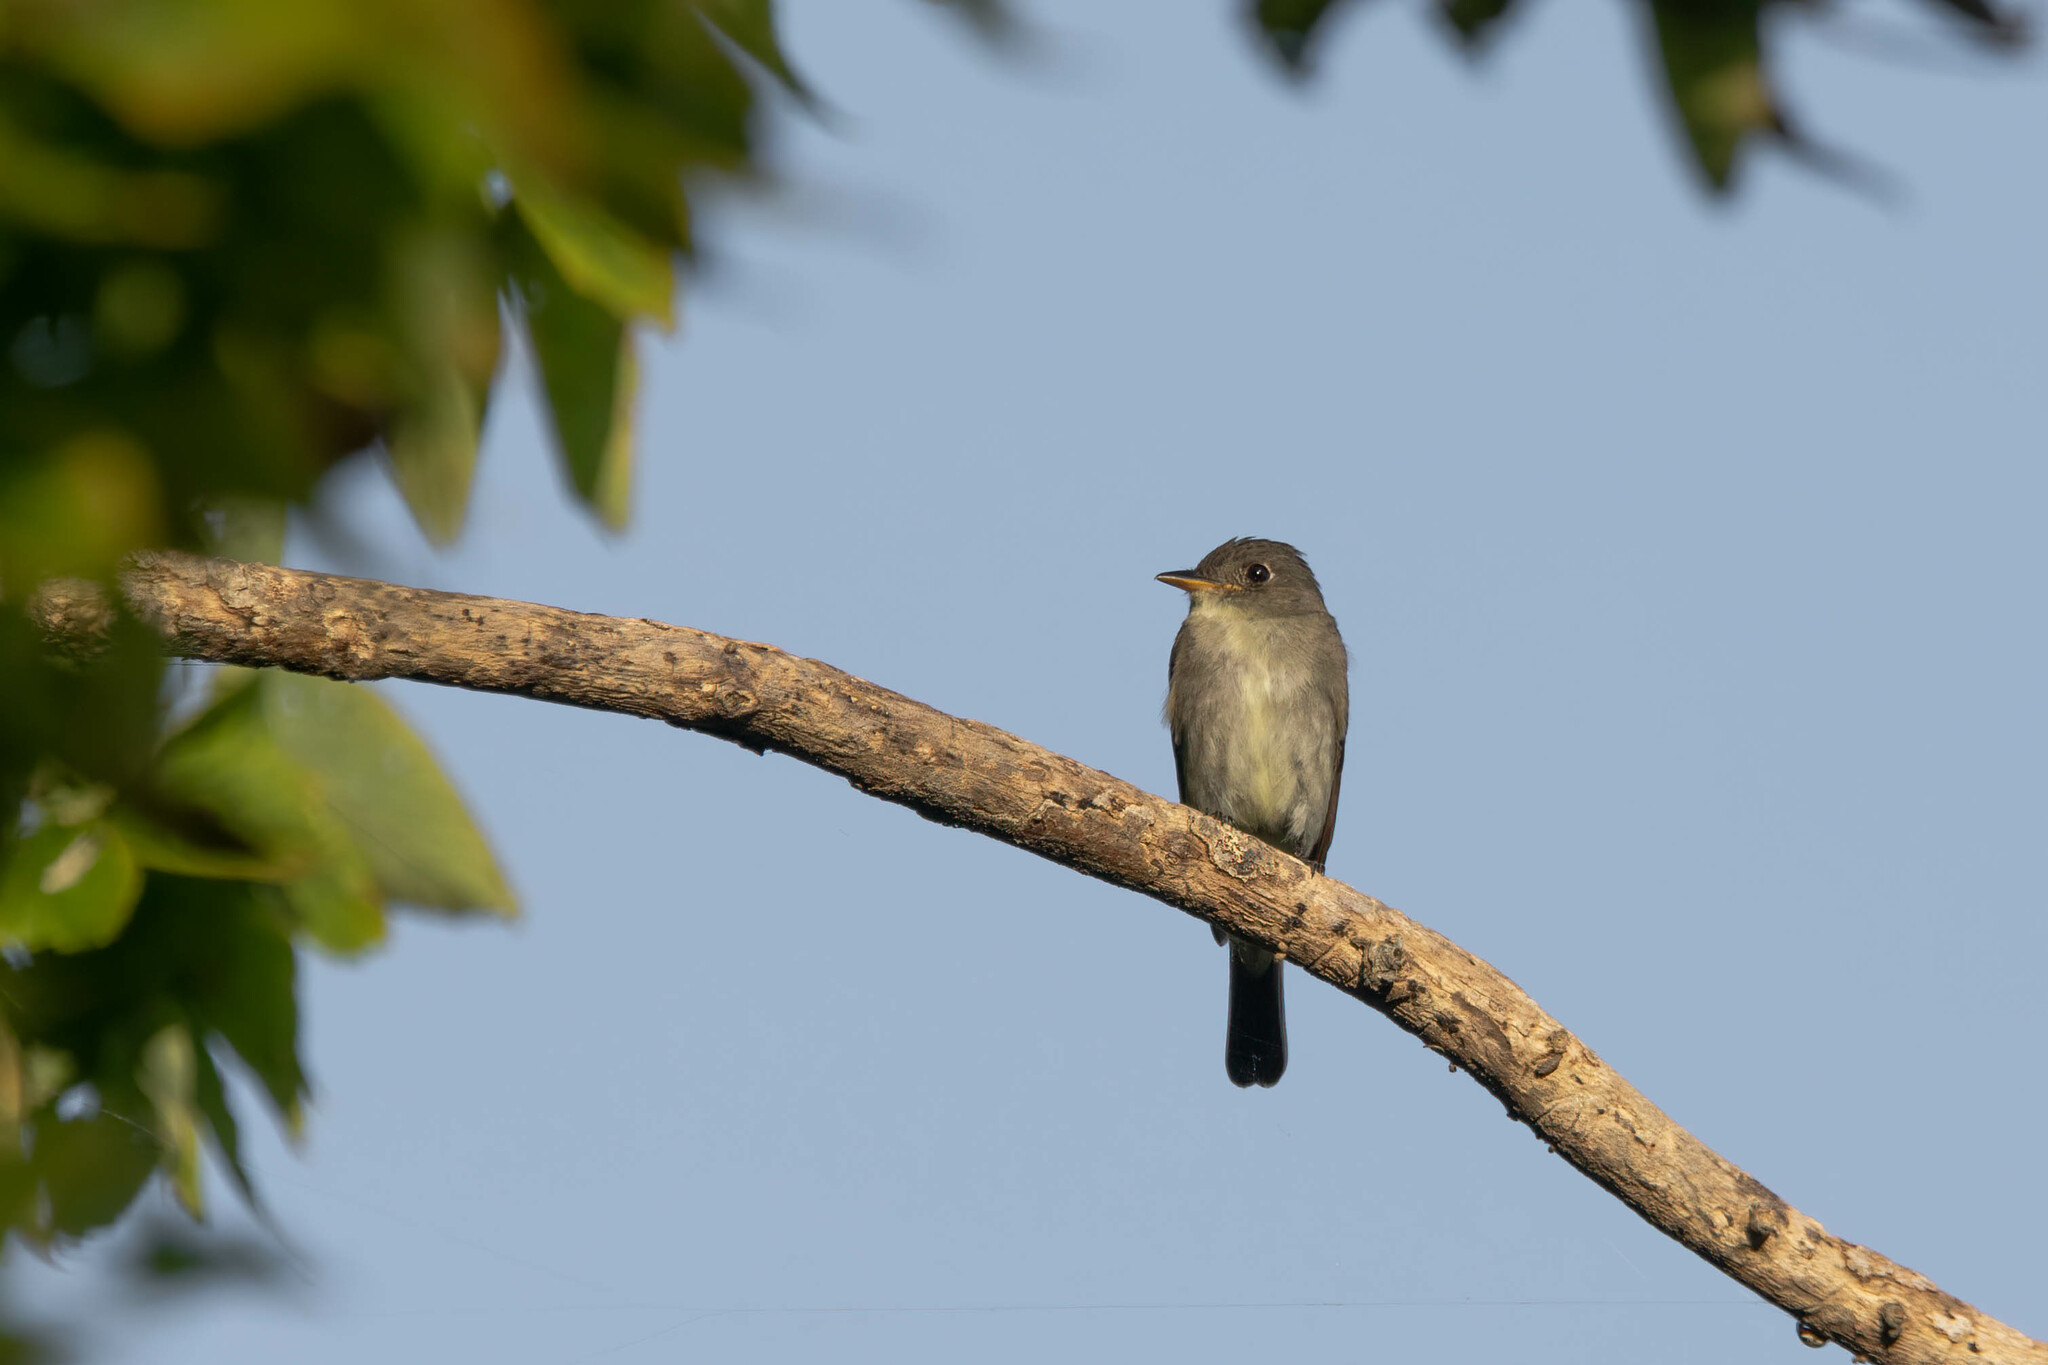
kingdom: Animalia
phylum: Chordata
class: Aves
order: Passeriformes
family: Tyrannidae
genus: Contopus
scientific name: Contopus virens
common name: Eastern wood-pewee
